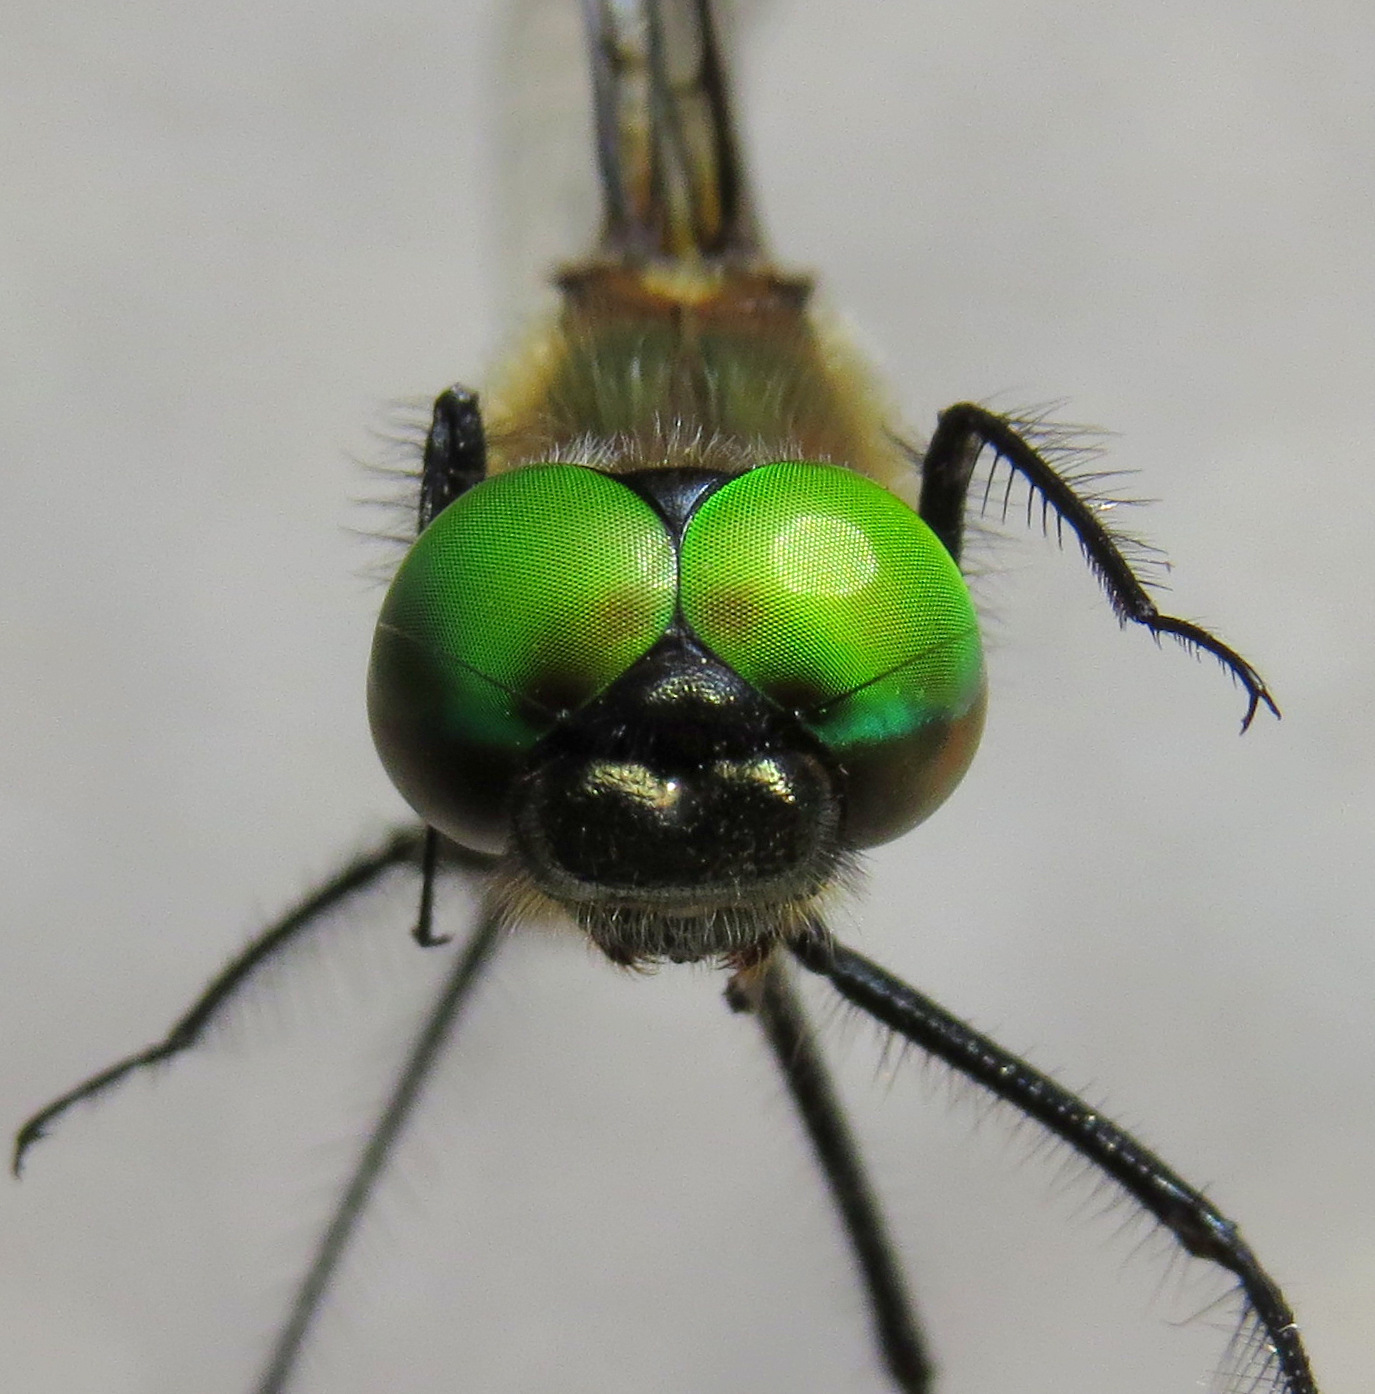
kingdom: Animalia
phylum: Arthropoda
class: Insecta
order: Odonata
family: Corduliidae
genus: Dorocordulia
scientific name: Dorocordulia libera
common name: Racket-tailed emerald
